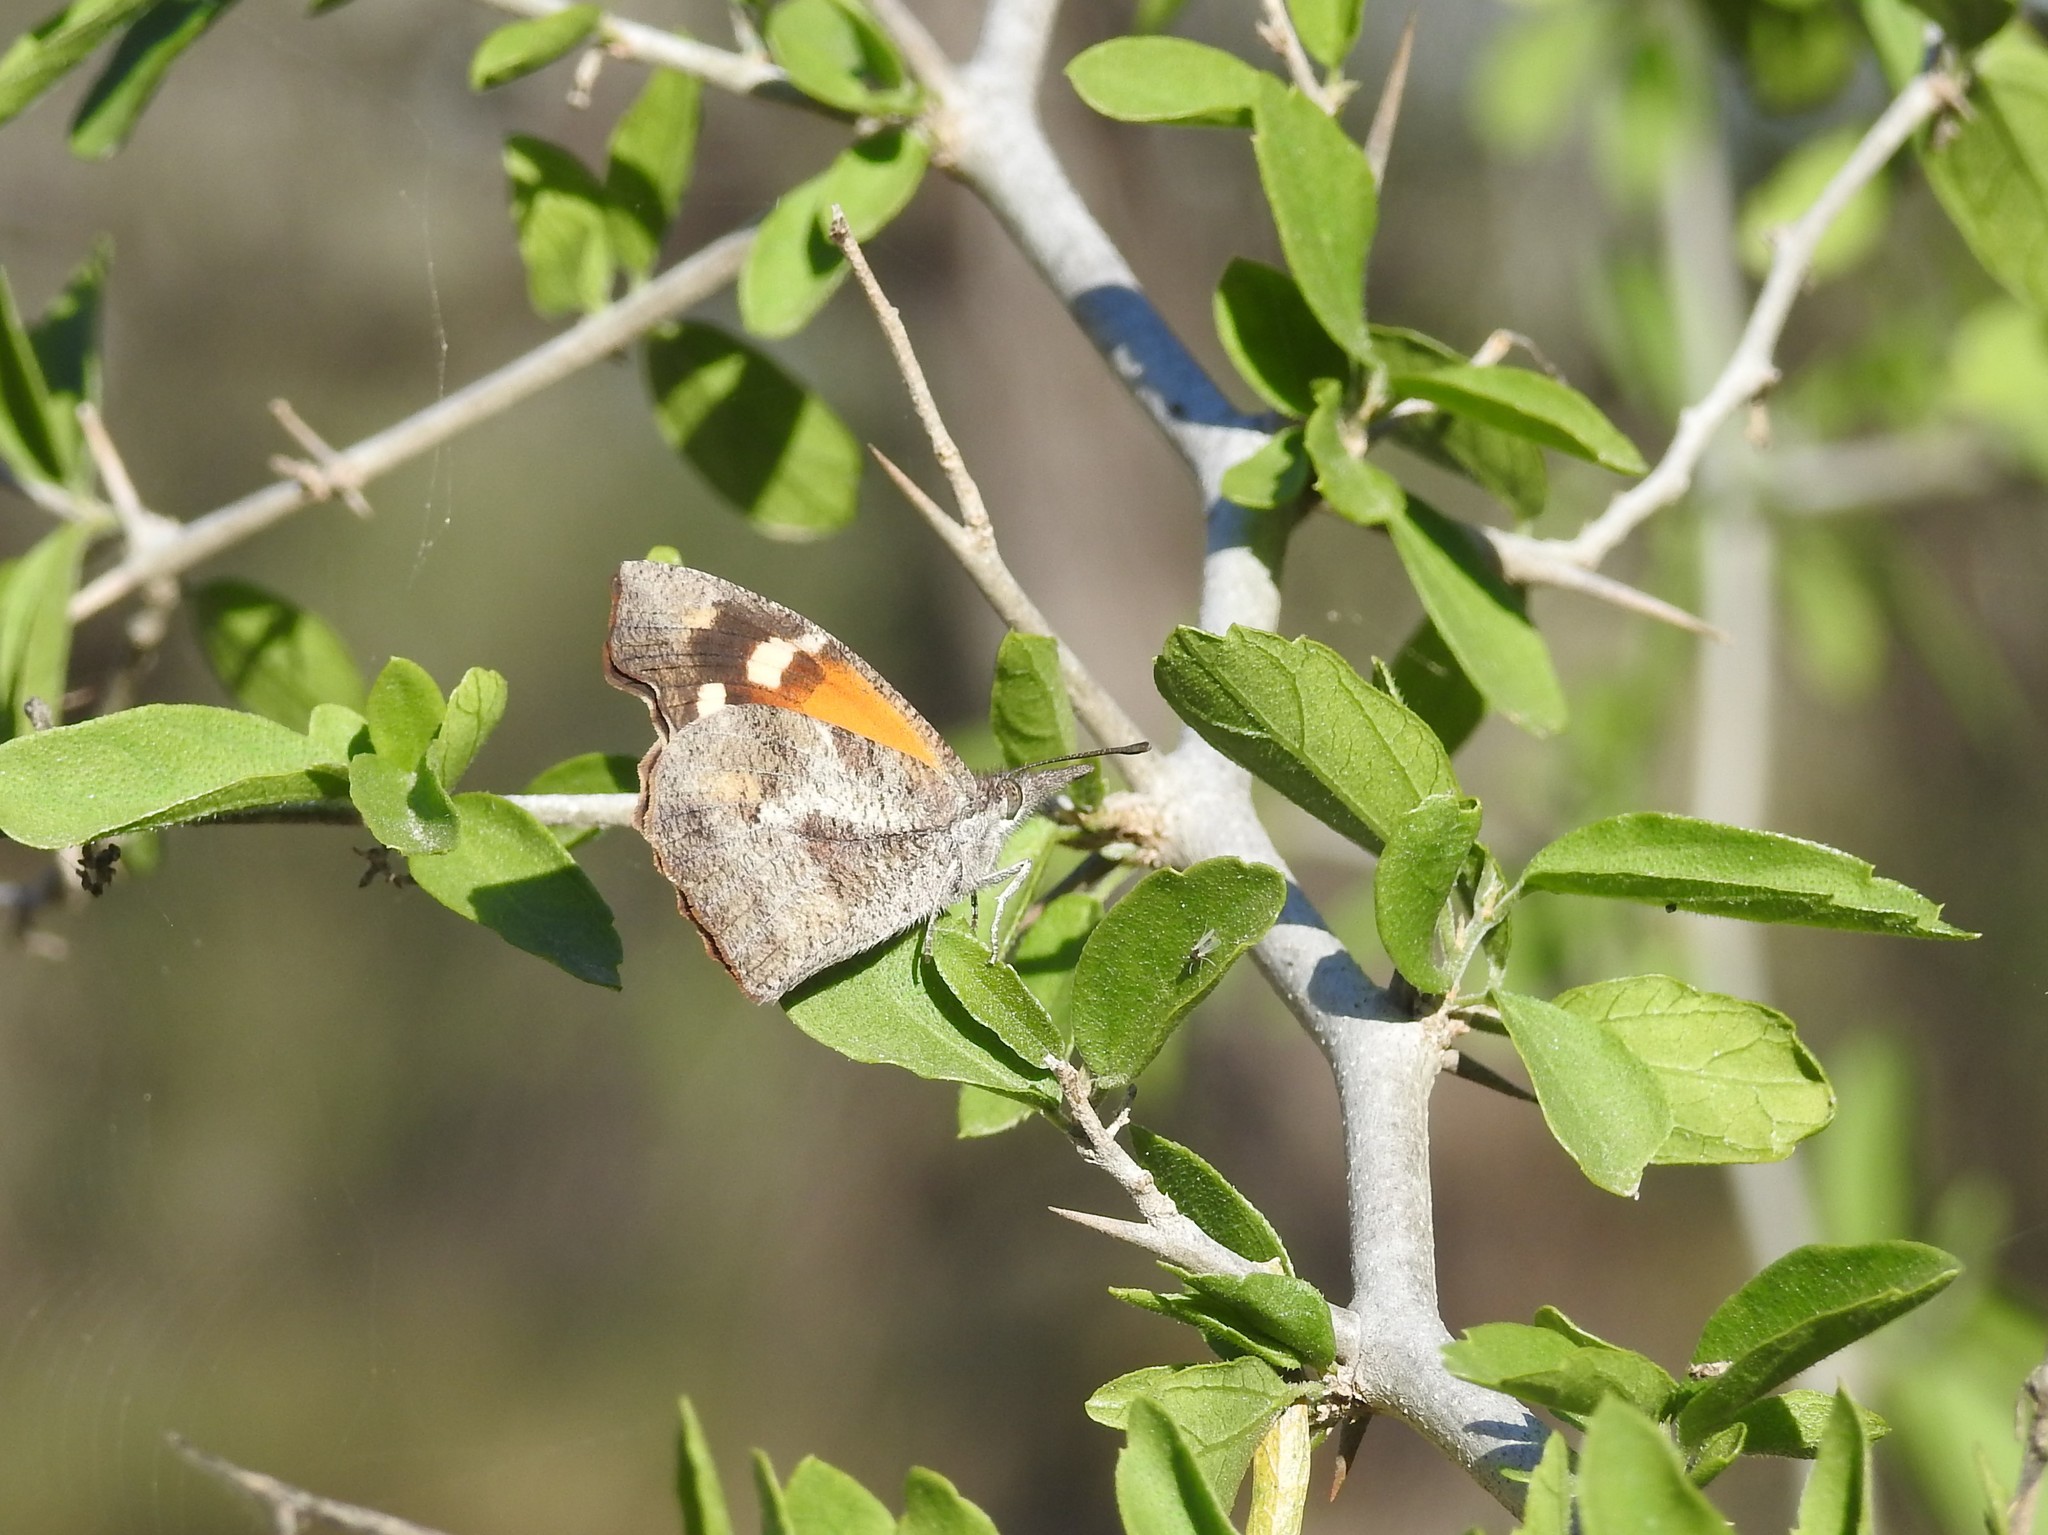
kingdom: Animalia
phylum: Arthropoda
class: Insecta
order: Lepidoptera
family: Nymphalidae
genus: Libytheana
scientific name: Libytheana carinenta
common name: American snout
